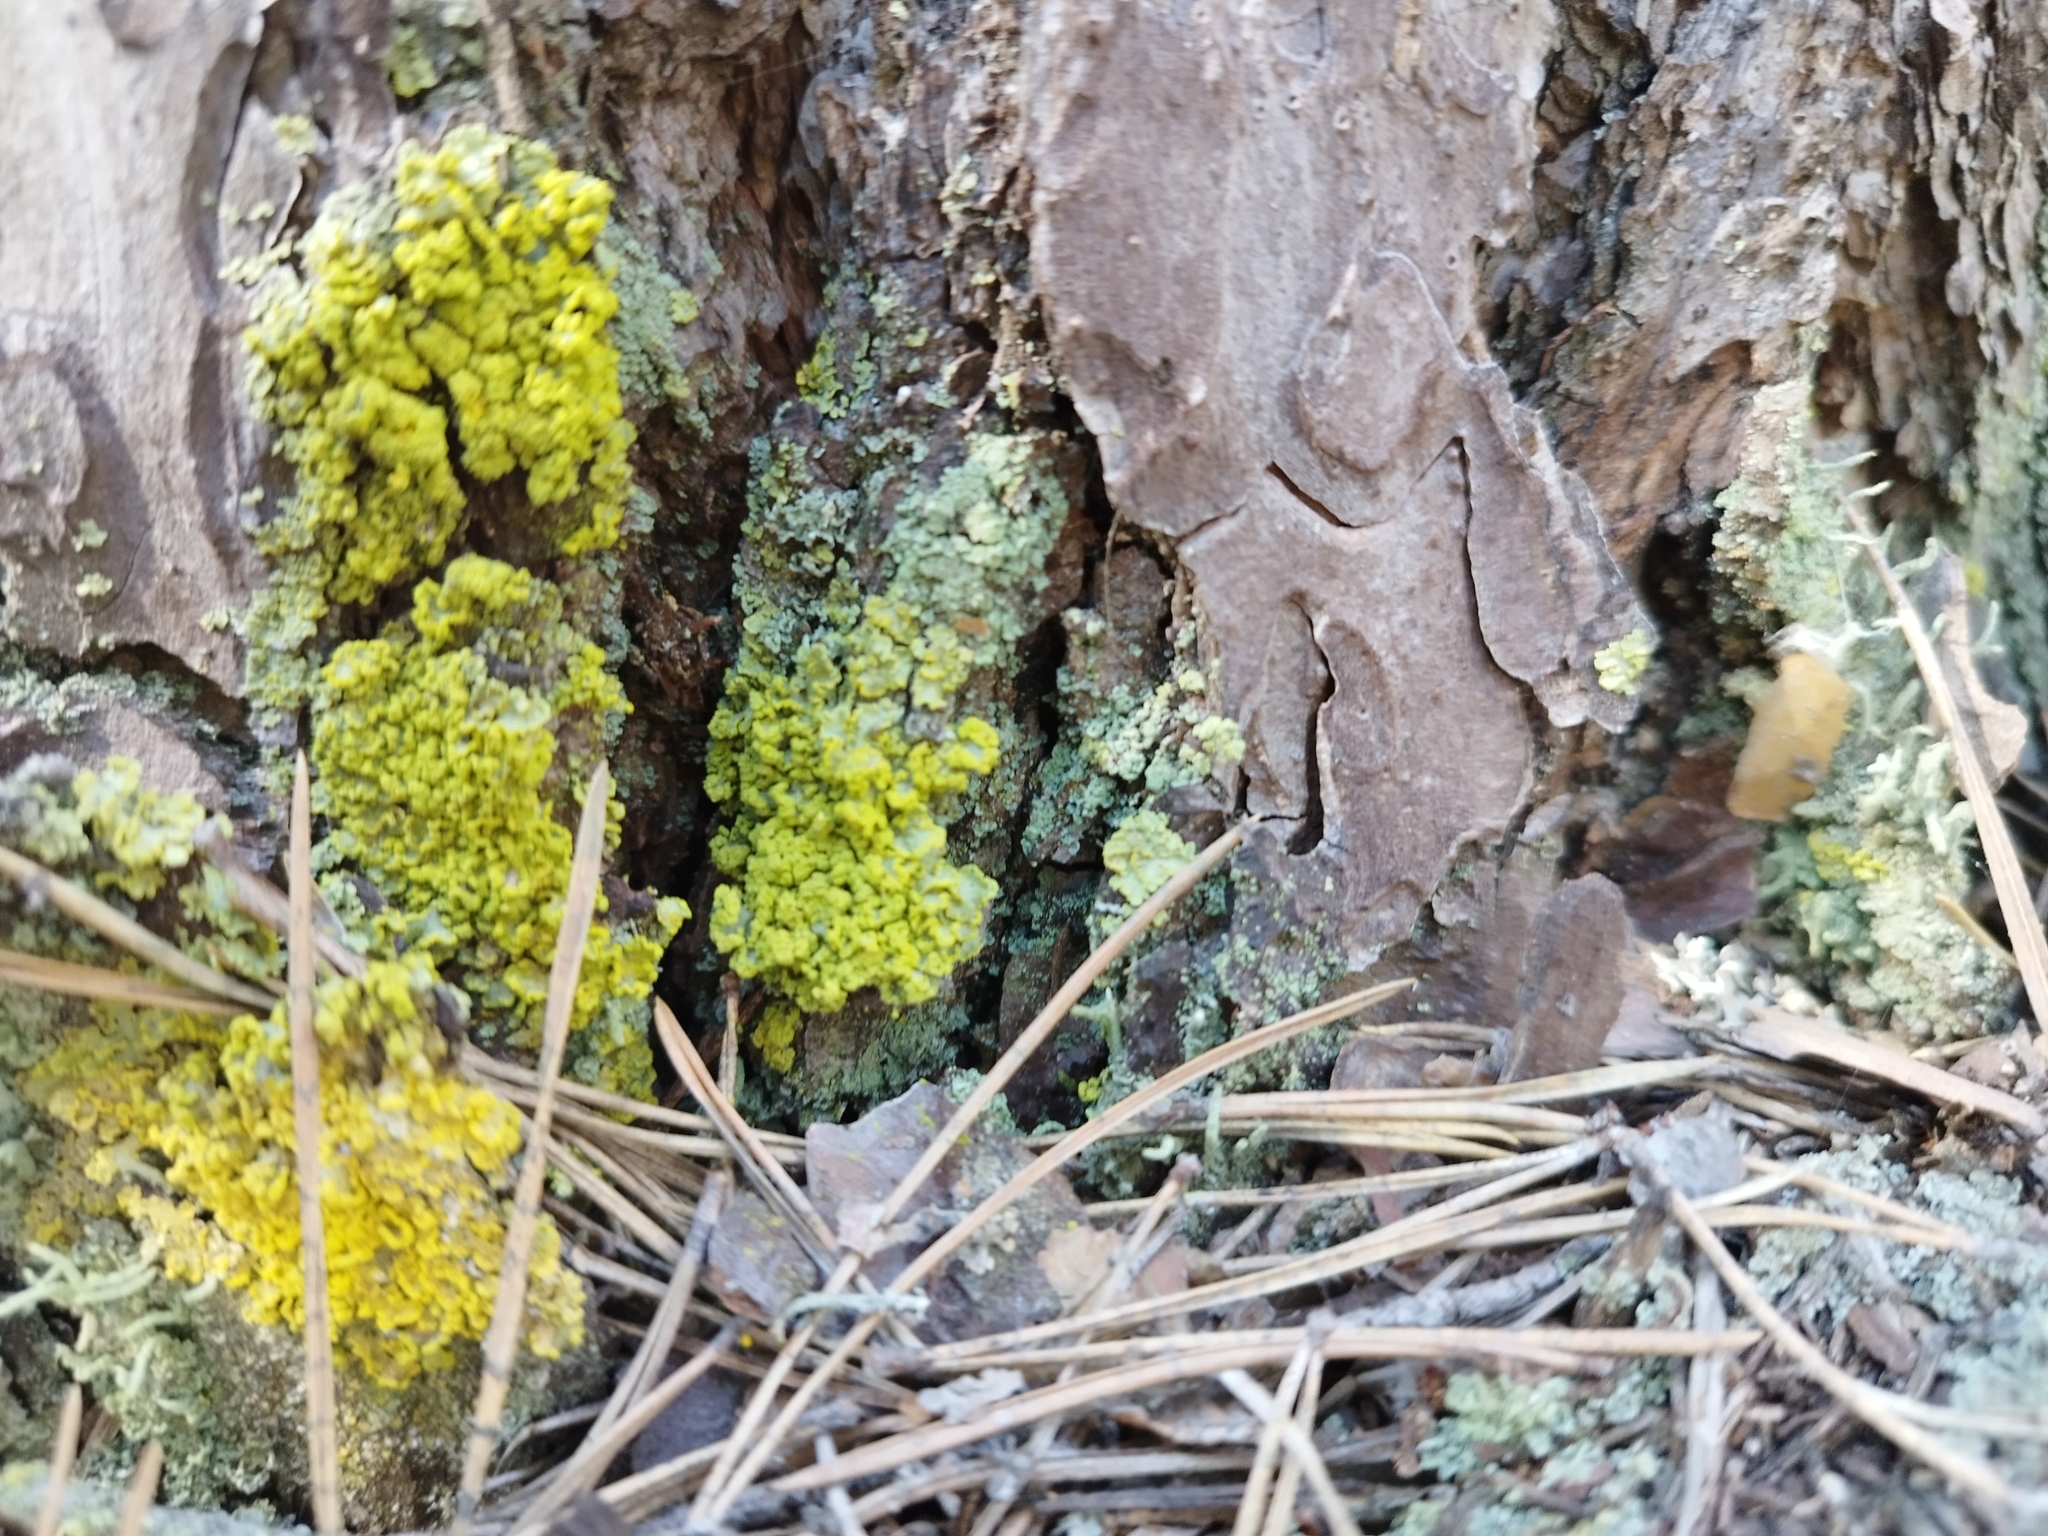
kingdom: Fungi
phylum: Ascomycota
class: Lecanoromycetes
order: Lecanorales
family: Parmeliaceae
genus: Vulpicida
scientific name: Vulpicida pinastri
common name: Powdered sunshine lichen
